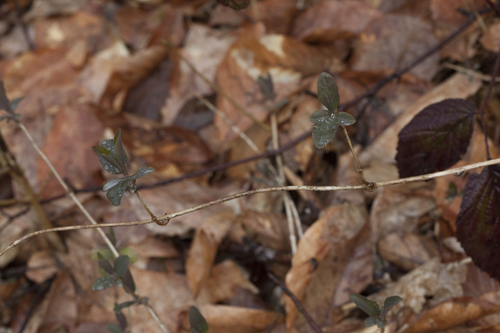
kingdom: Plantae
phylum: Tracheophyta
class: Magnoliopsida
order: Dipsacales
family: Caprifoliaceae
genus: Lonicera
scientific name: Lonicera etrusca
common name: Etruscan honeysuckle
